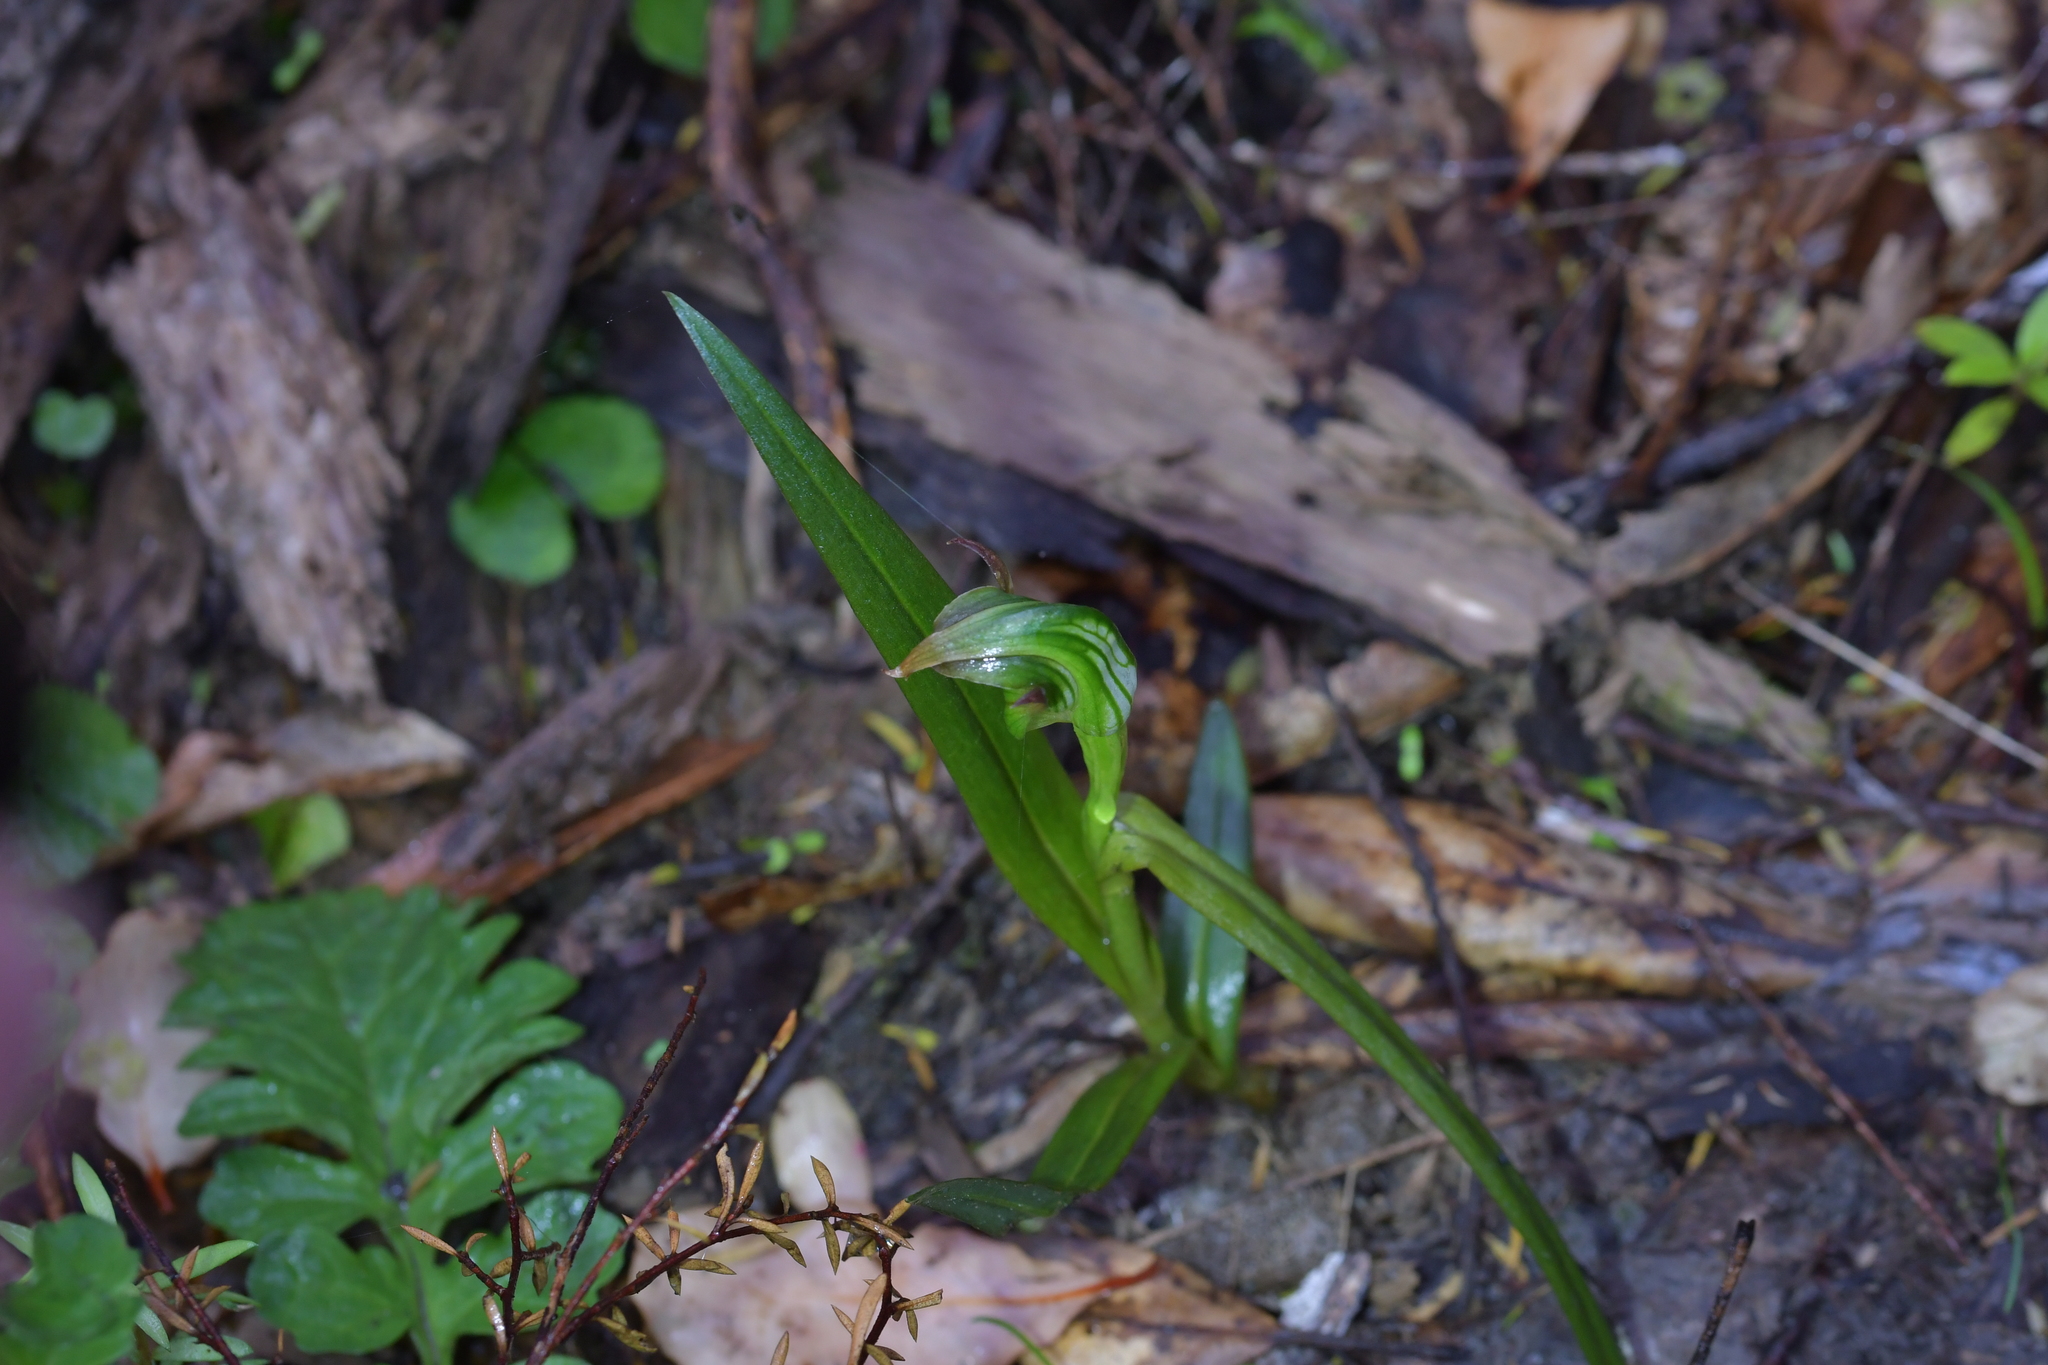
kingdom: Plantae
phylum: Tracheophyta
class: Liliopsida
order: Asparagales
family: Orchidaceae
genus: Pterostylis
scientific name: Pterostylis montana
